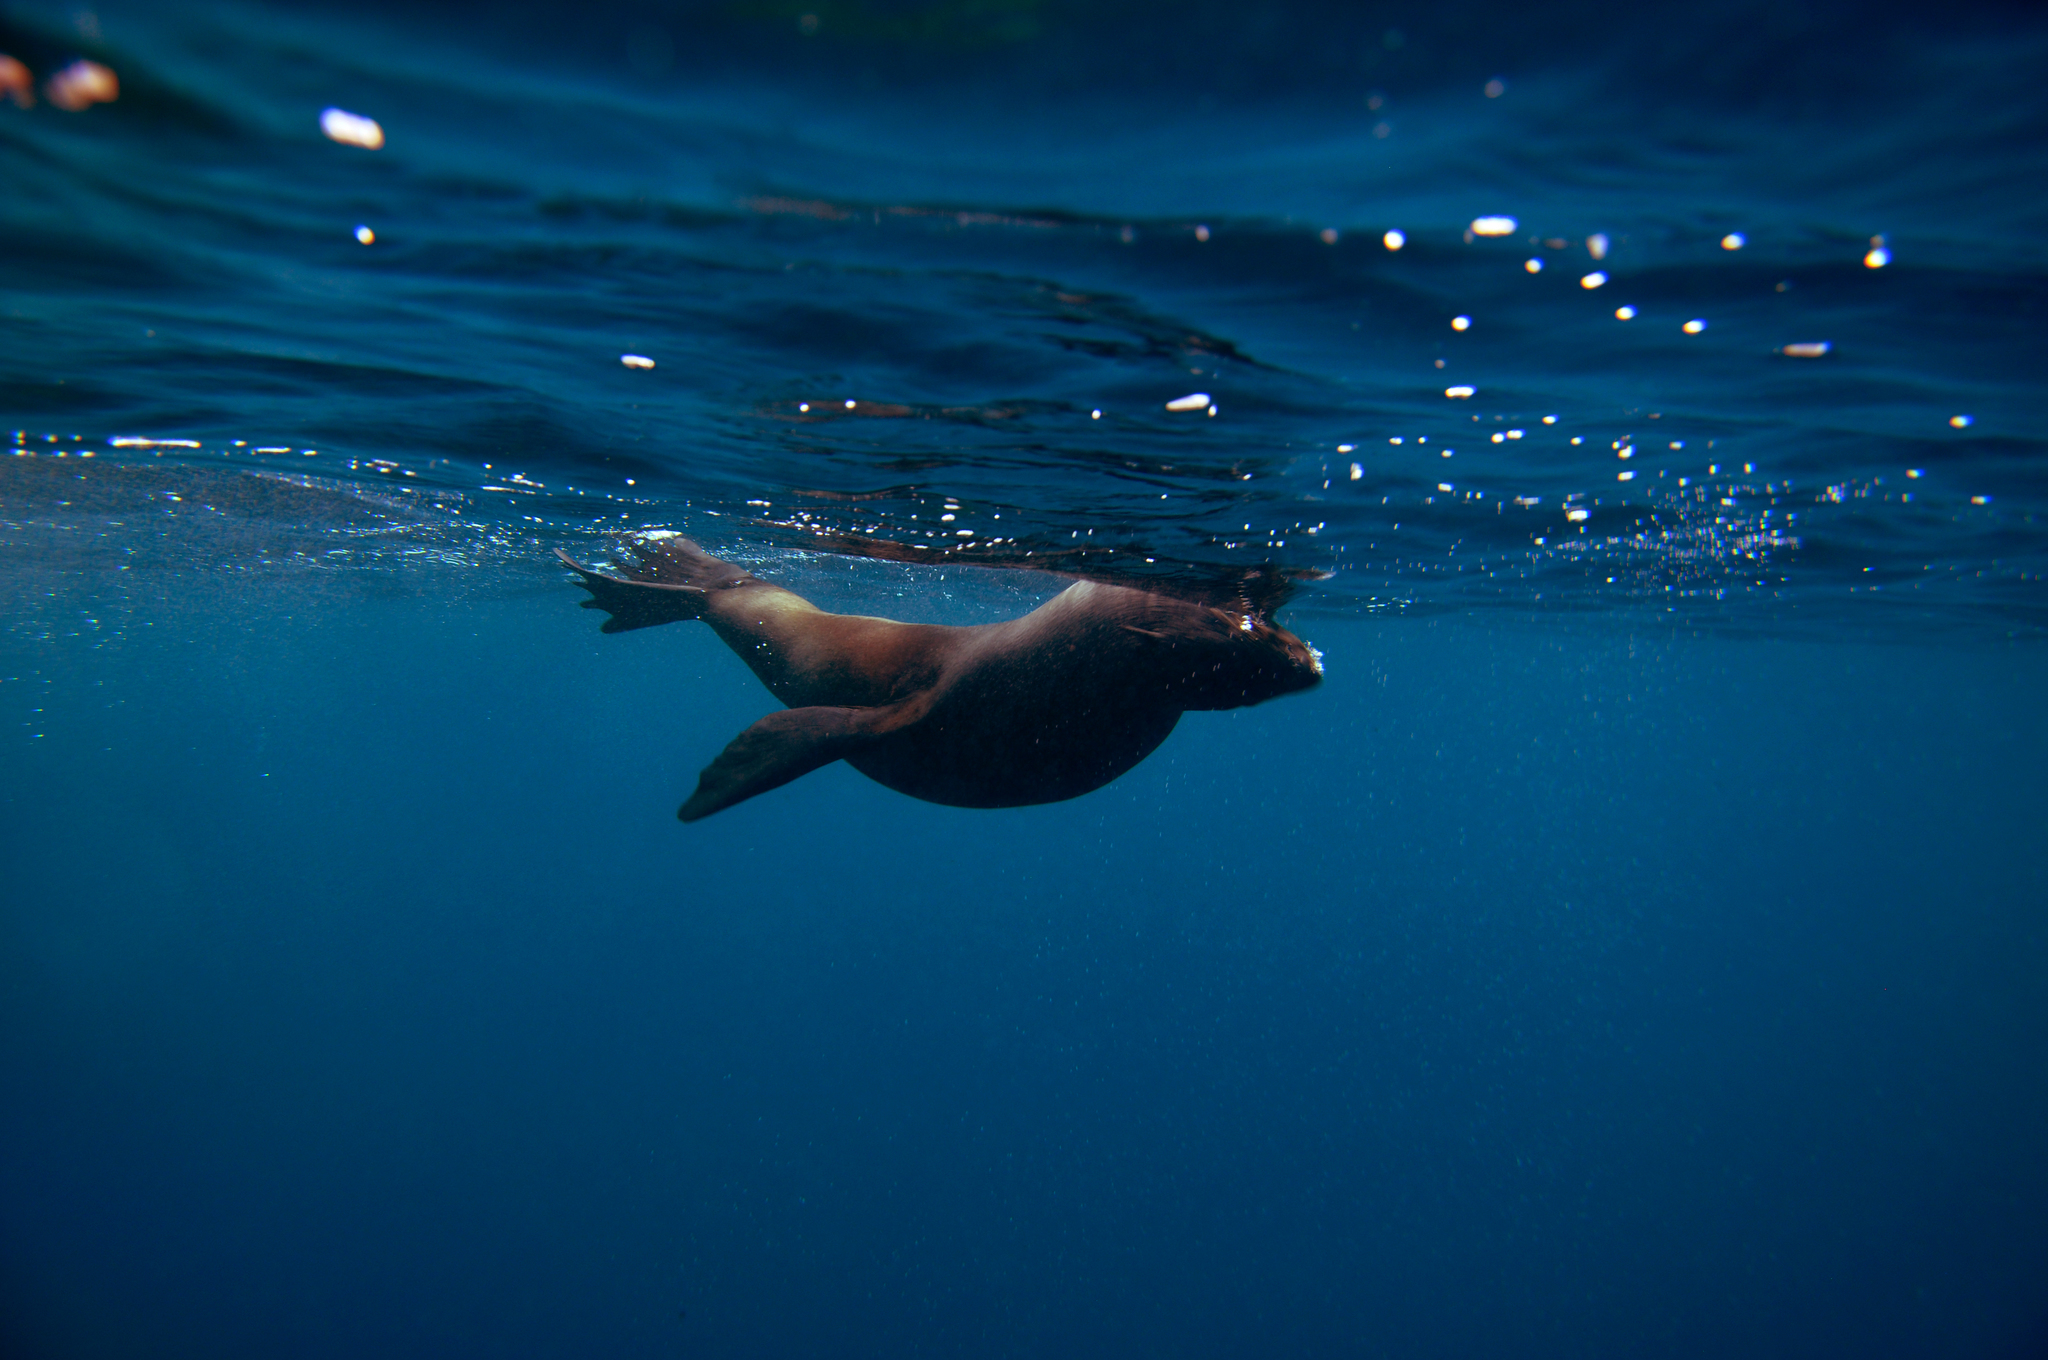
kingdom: Animalia
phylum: Chordata
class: Mammalia
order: Carnivora
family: Otariidae
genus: Arctocephalus
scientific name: Arctocephalus philippii
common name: Juan fernández fur seal
